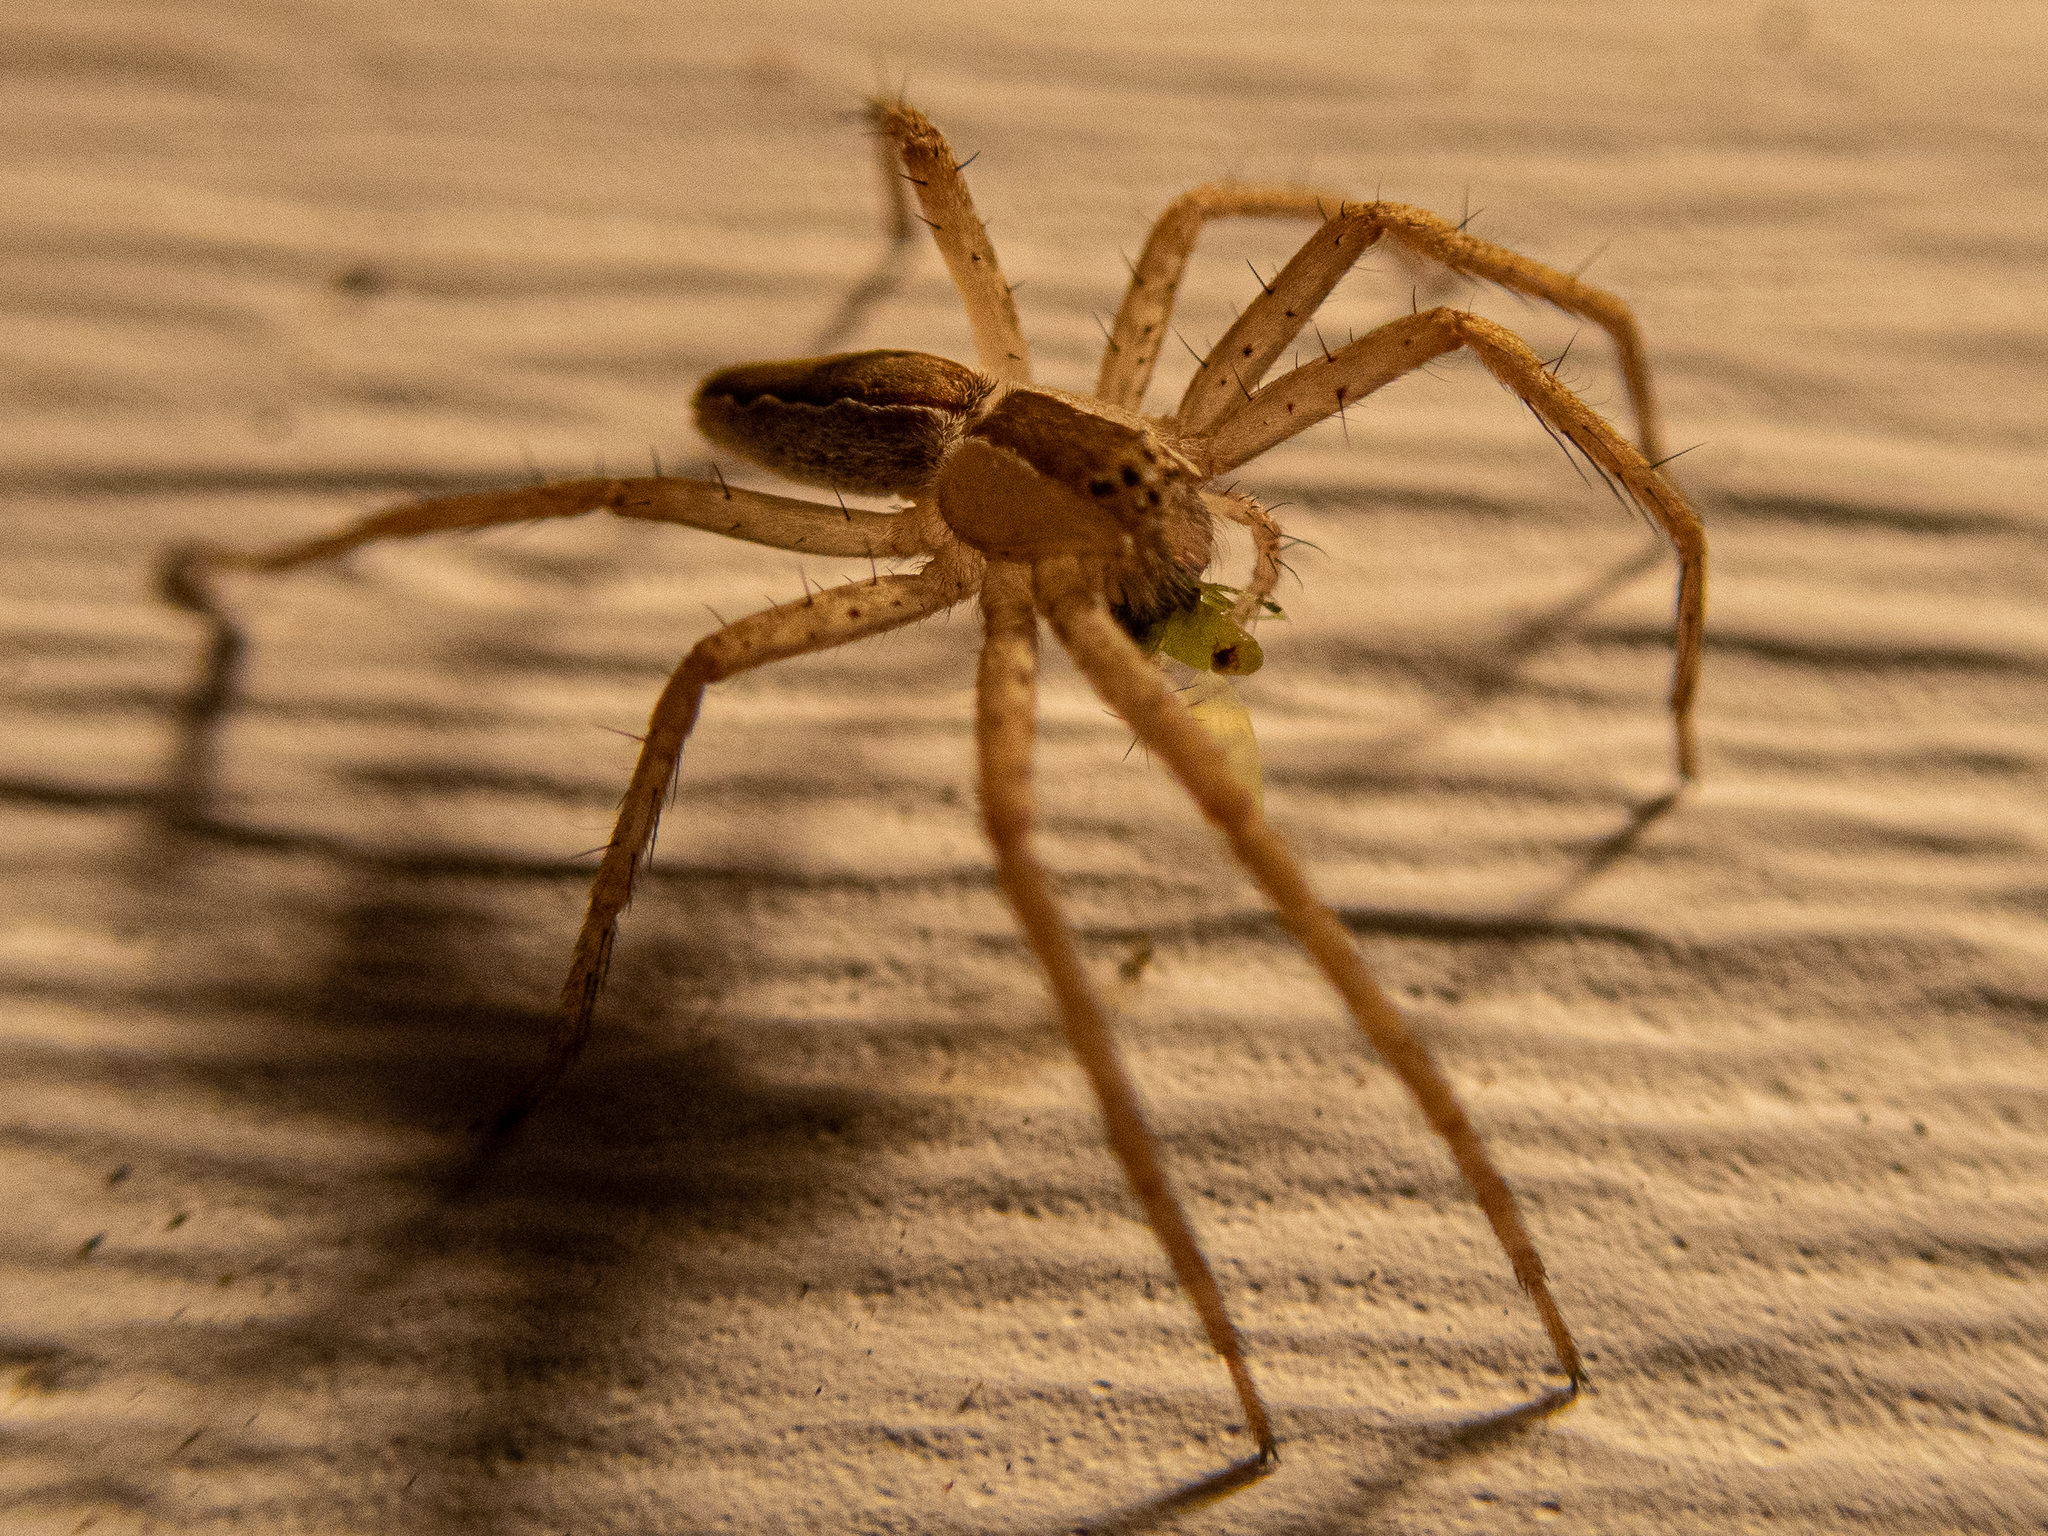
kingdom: Animalia
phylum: Arthropoda
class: Arachnida
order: Araneae
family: Pisauridae
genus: Pisaurina
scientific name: Pisaurina mira
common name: American nursery web spider
